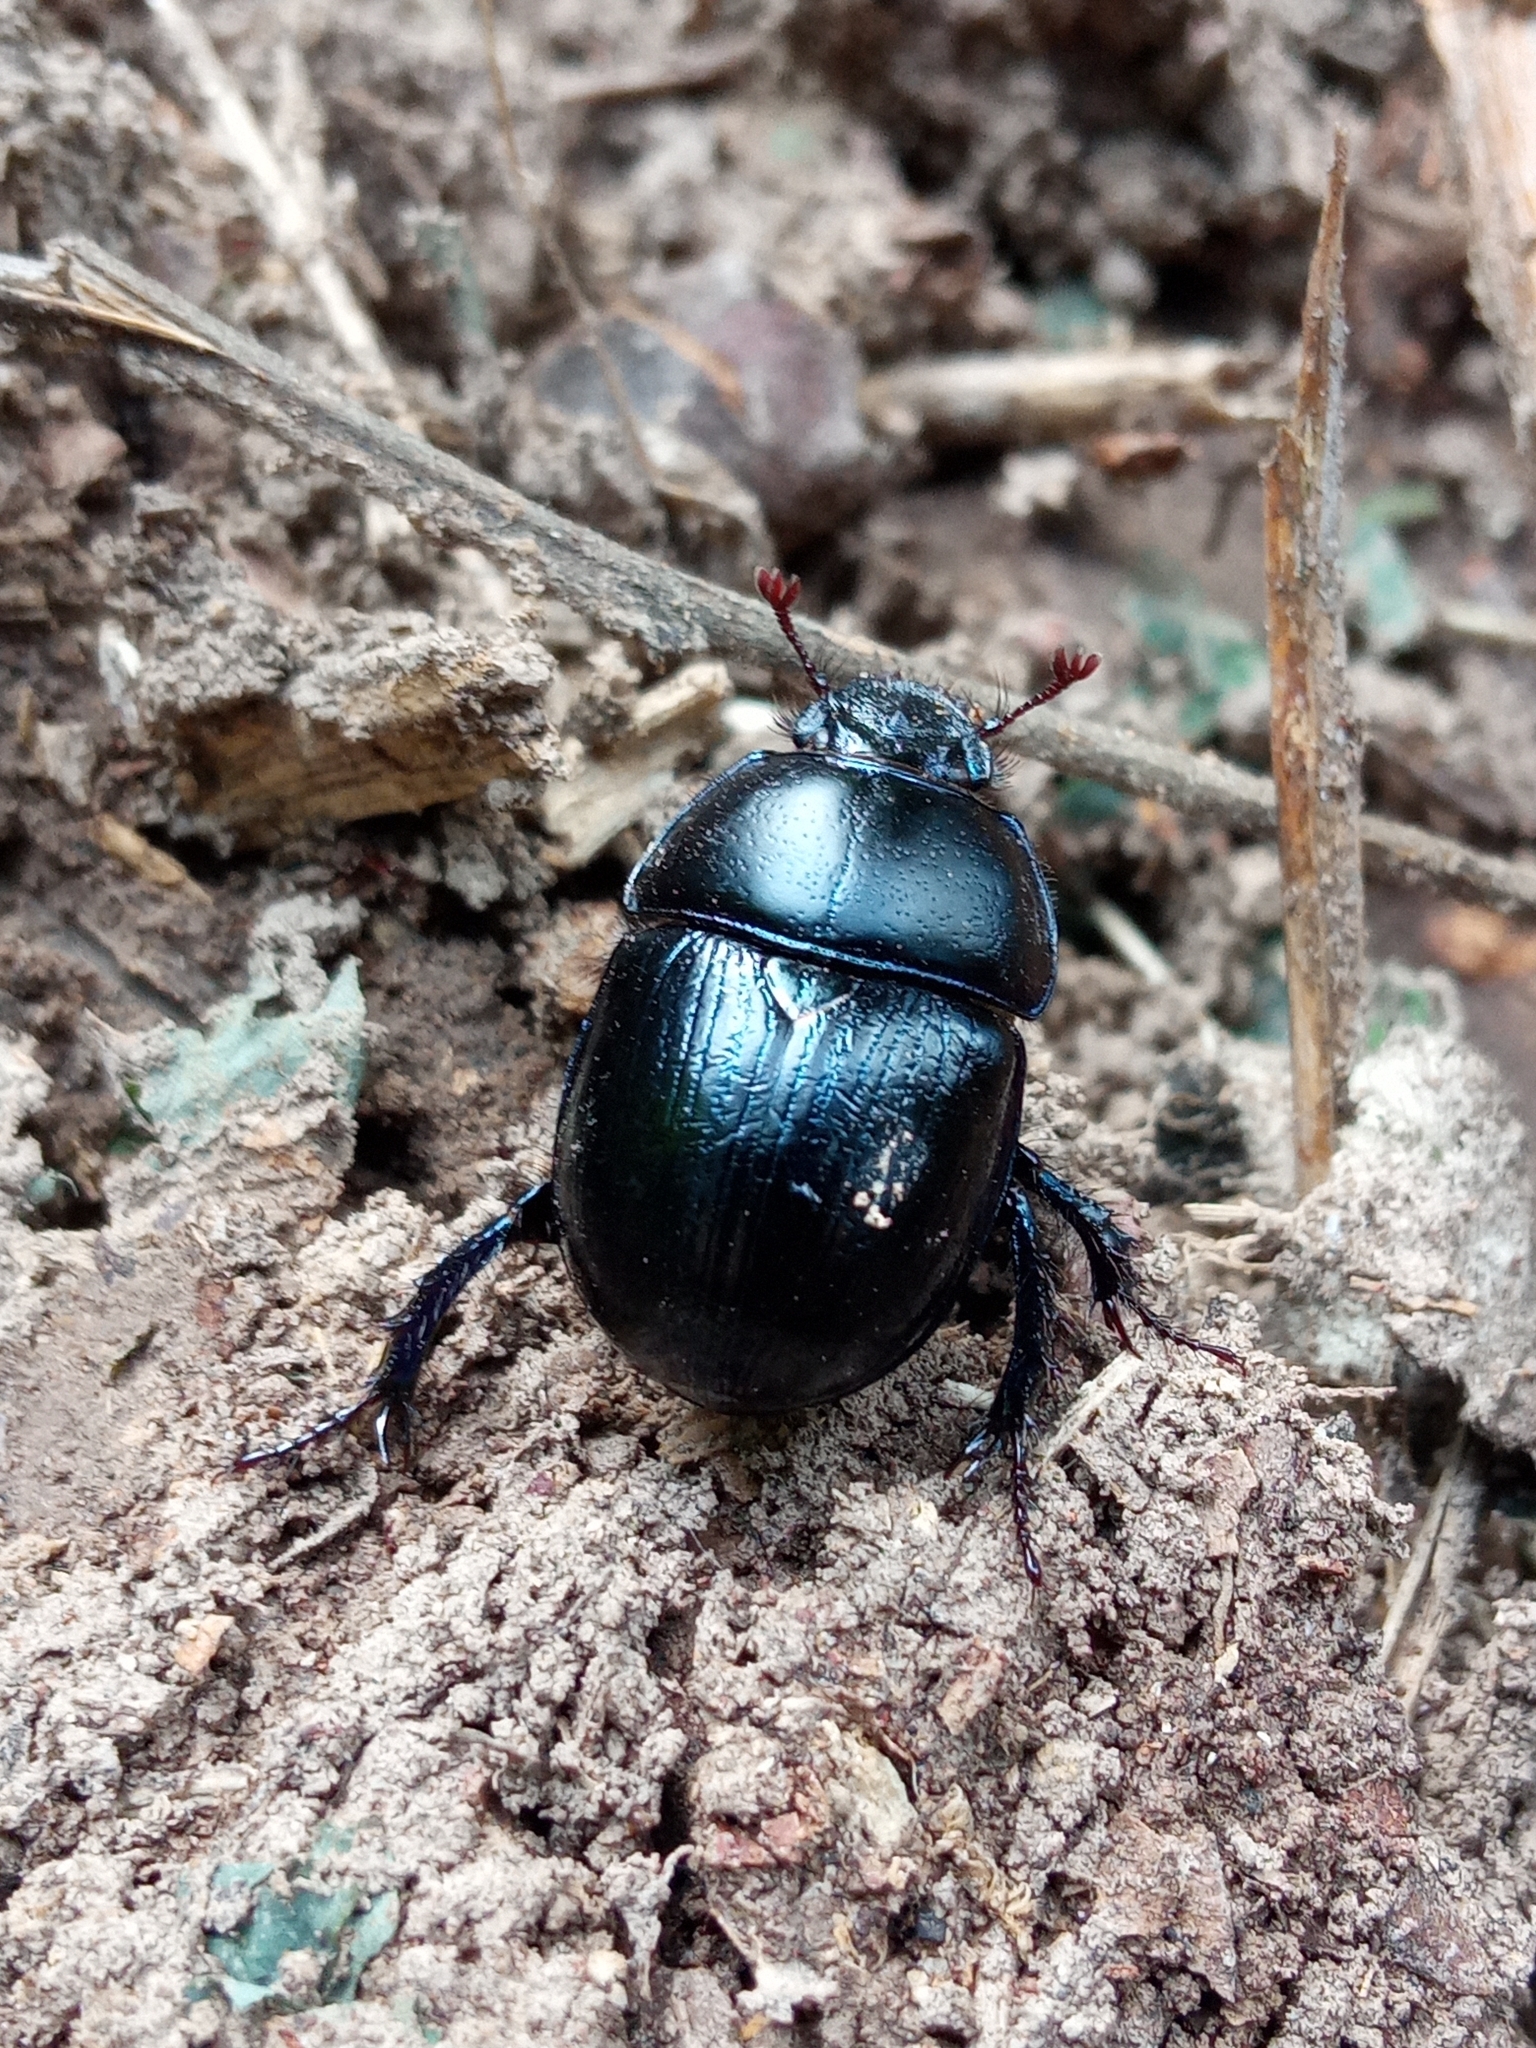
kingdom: Animalia
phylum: Arthropoda
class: Insecta
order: Coleoptera
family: Geotrupidae
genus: Anoplotrupes
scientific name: Anoplotrupes stercorosus
